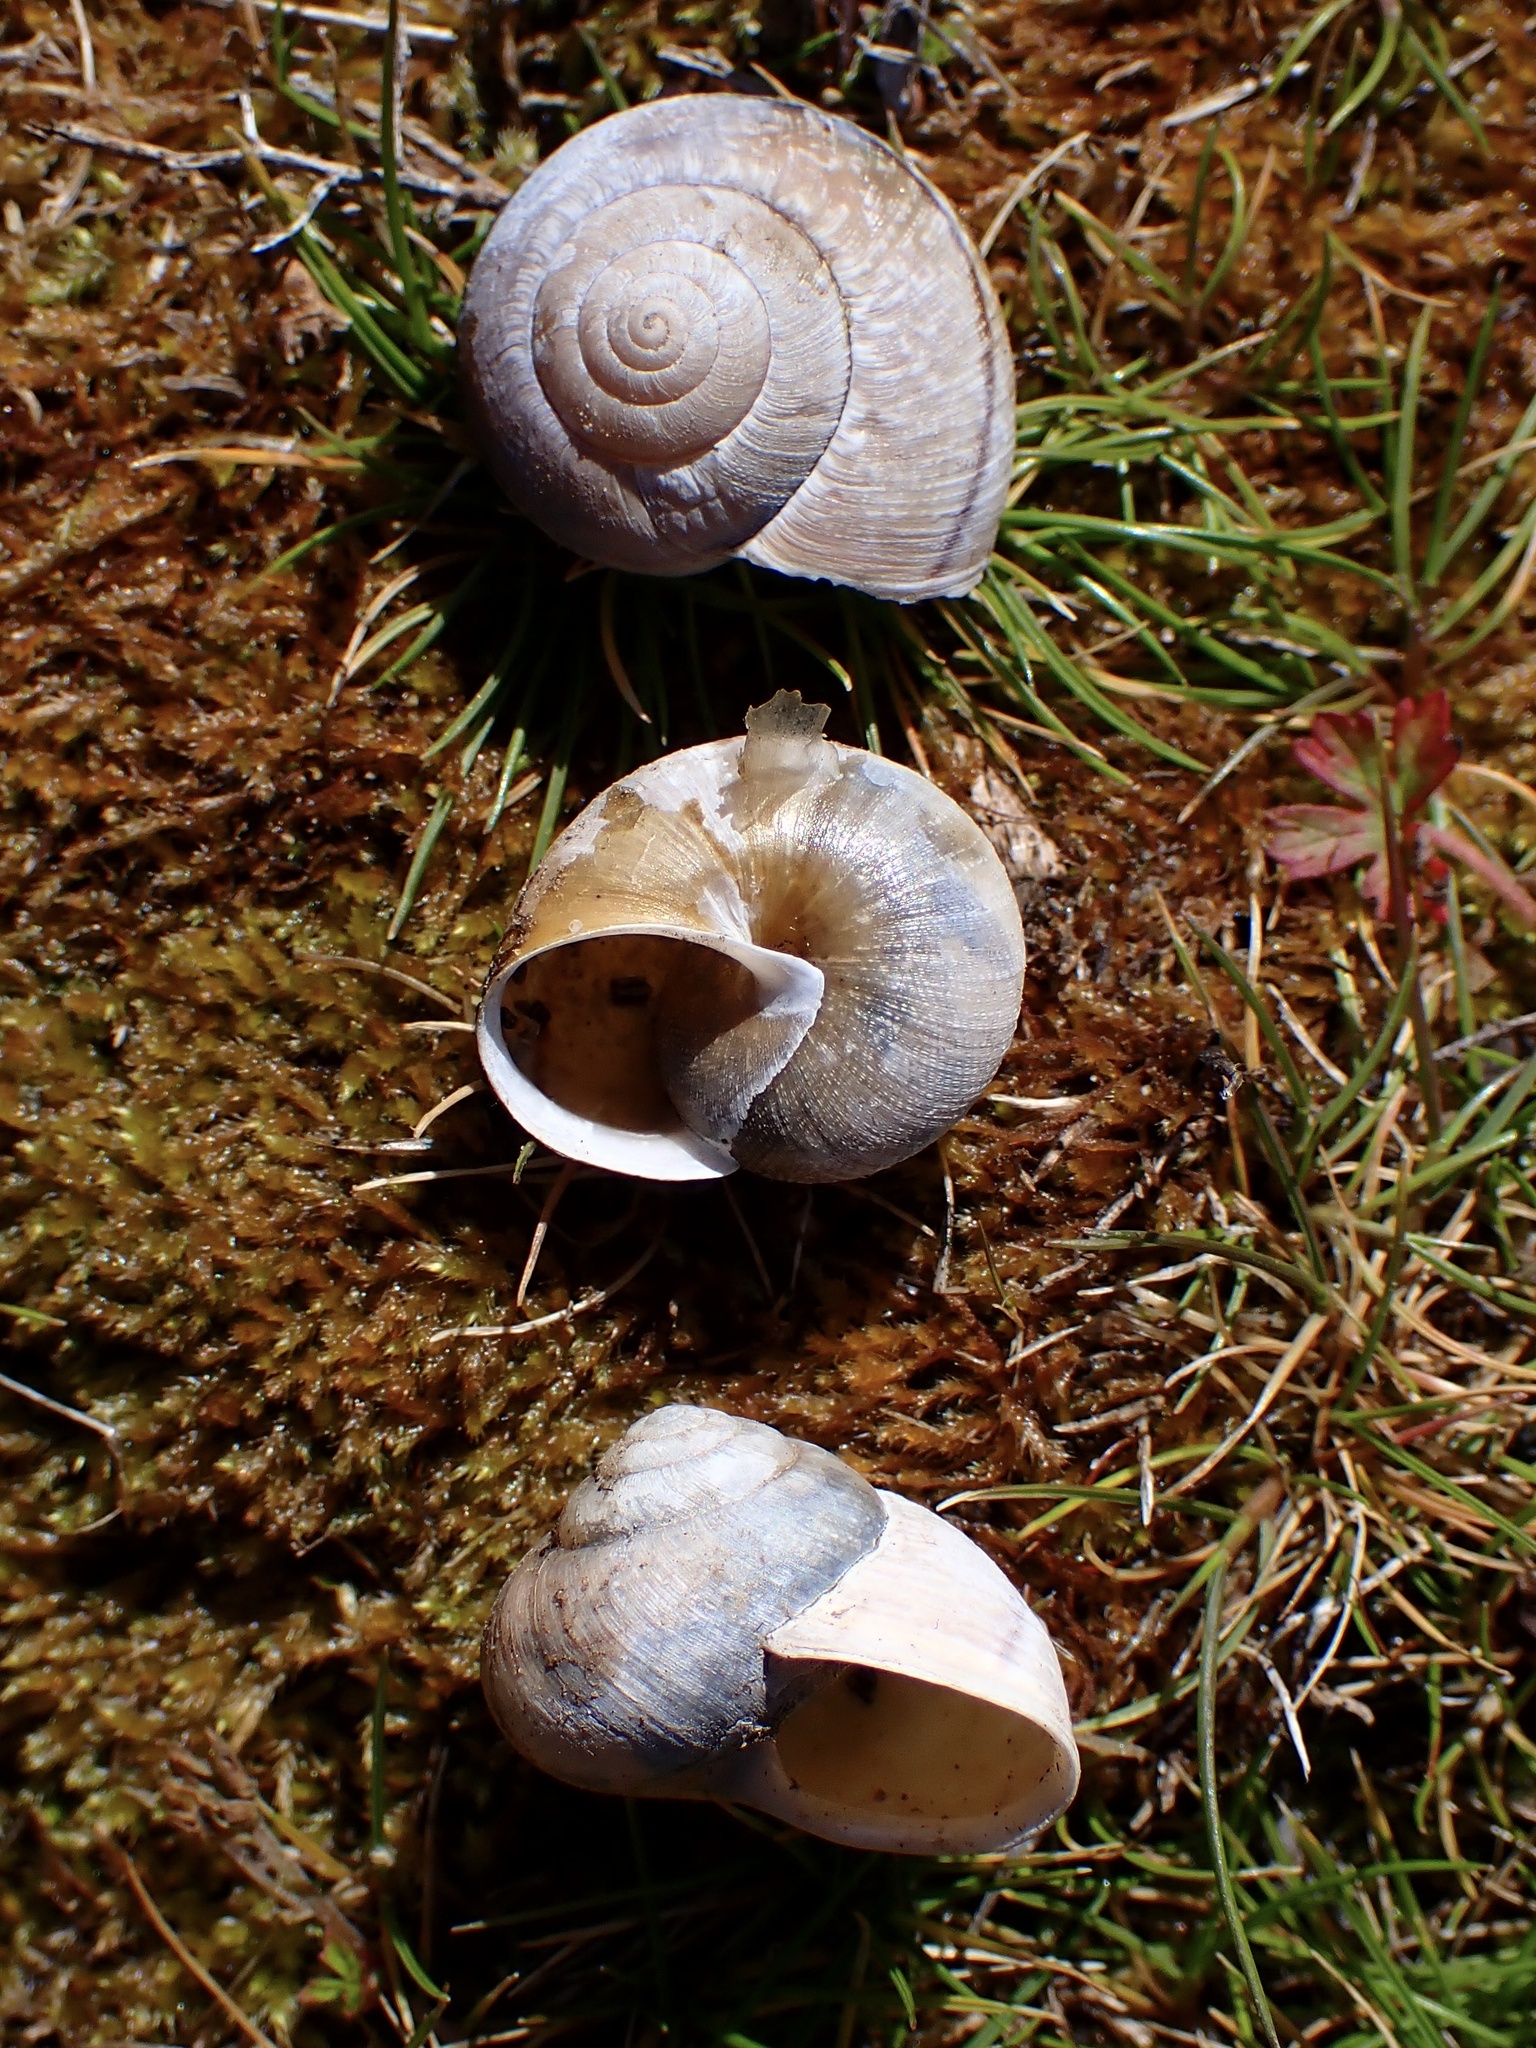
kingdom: Animalia
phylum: Mollusca
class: Gastropoda
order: Stylommatophora
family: Xanthonychidae
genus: Helminthoglypta
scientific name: Helminthoglypta nickliniana
